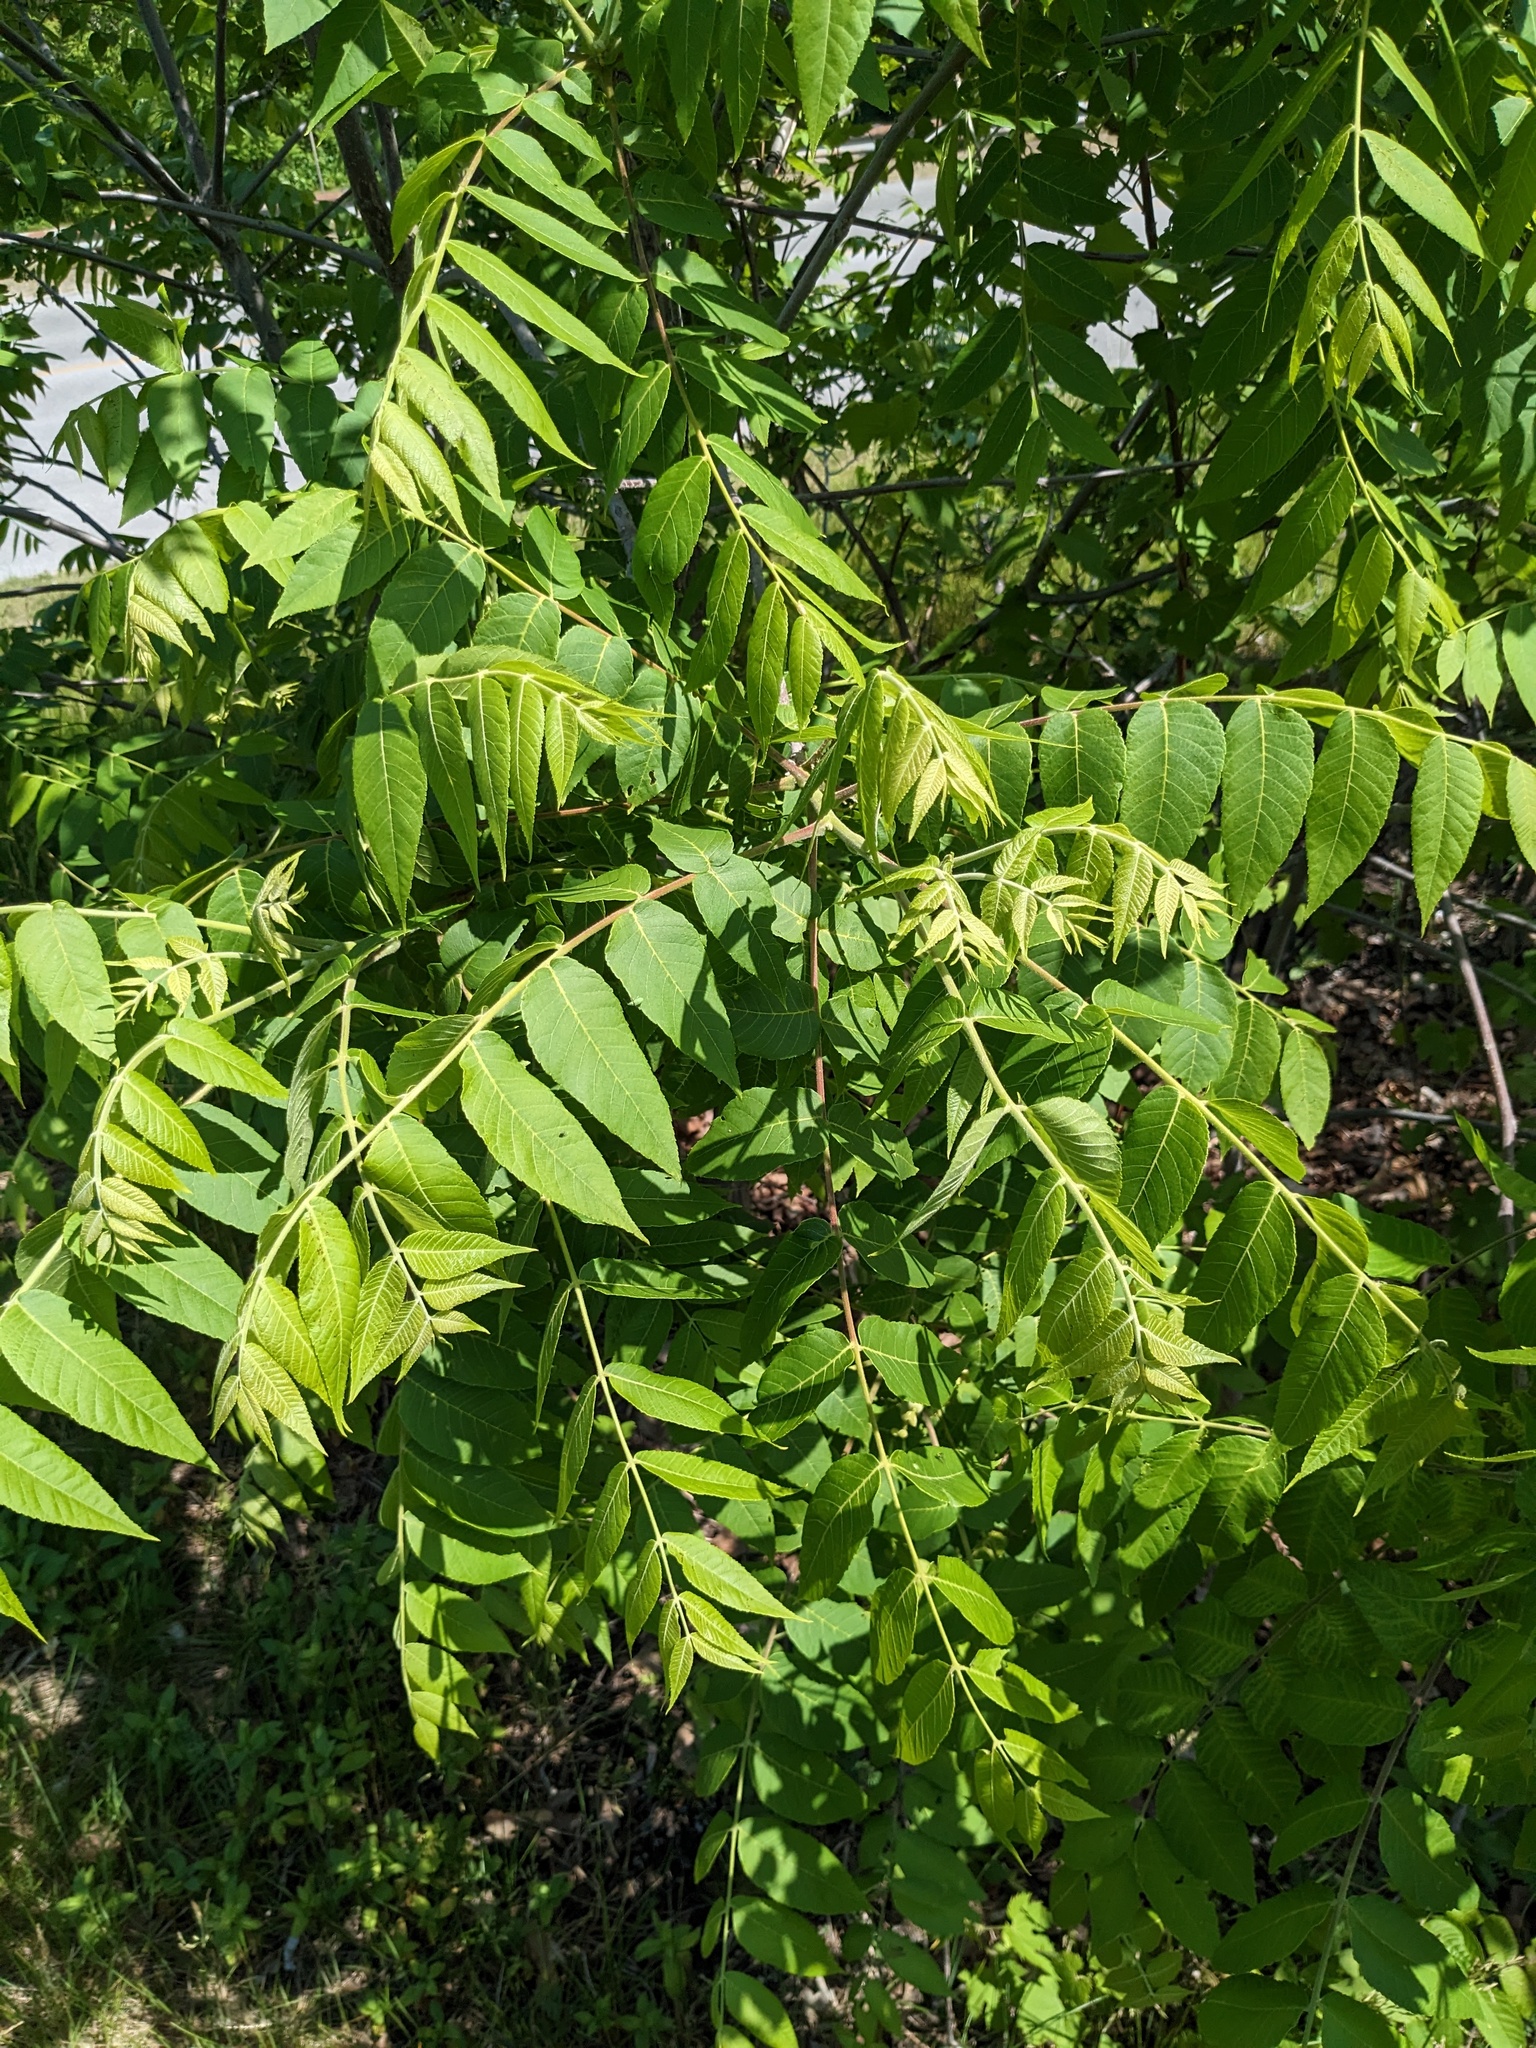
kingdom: Plantae
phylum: Tracheophyta
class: Magnoliopsida
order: Fagales
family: Juglandaceae
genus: Juglans
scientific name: Juglans nigra
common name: Black walnut
